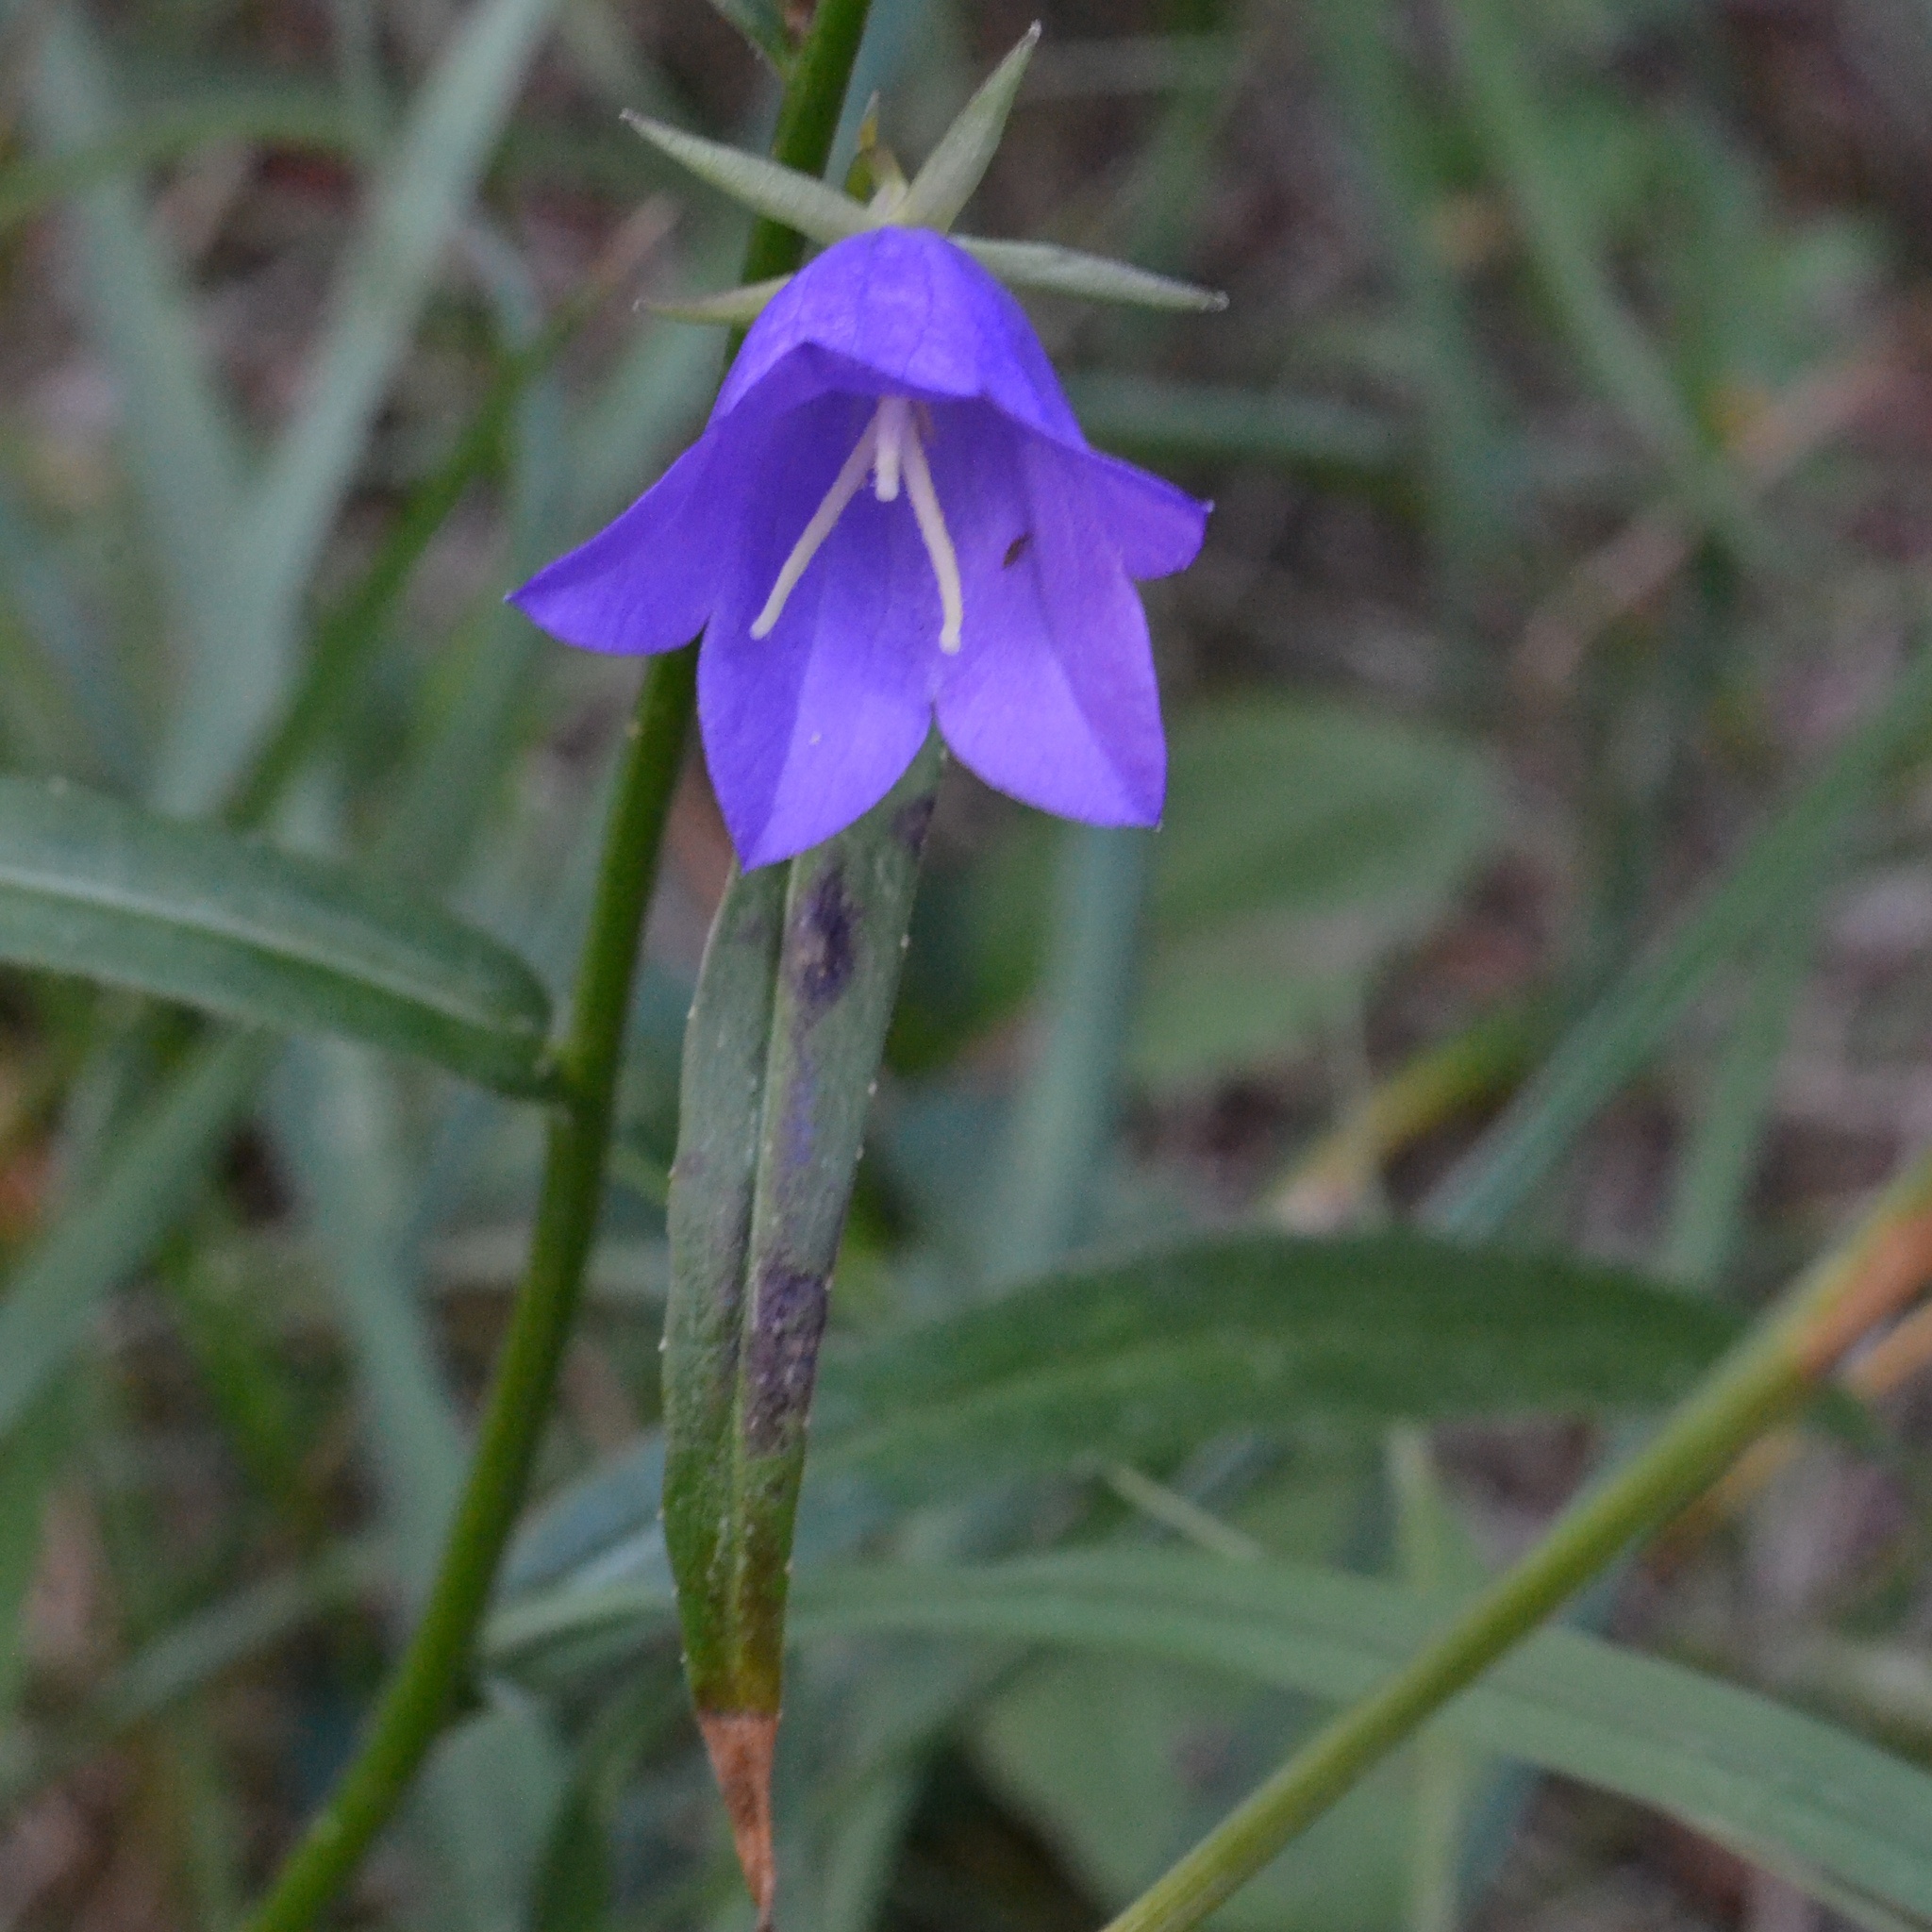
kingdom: Plantae
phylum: Tracheophyta
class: Magnoliopsida
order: Asterales
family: Campanulaceae
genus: Campanula
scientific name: Campanula persicifolia
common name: Peach-leaved bellflower
